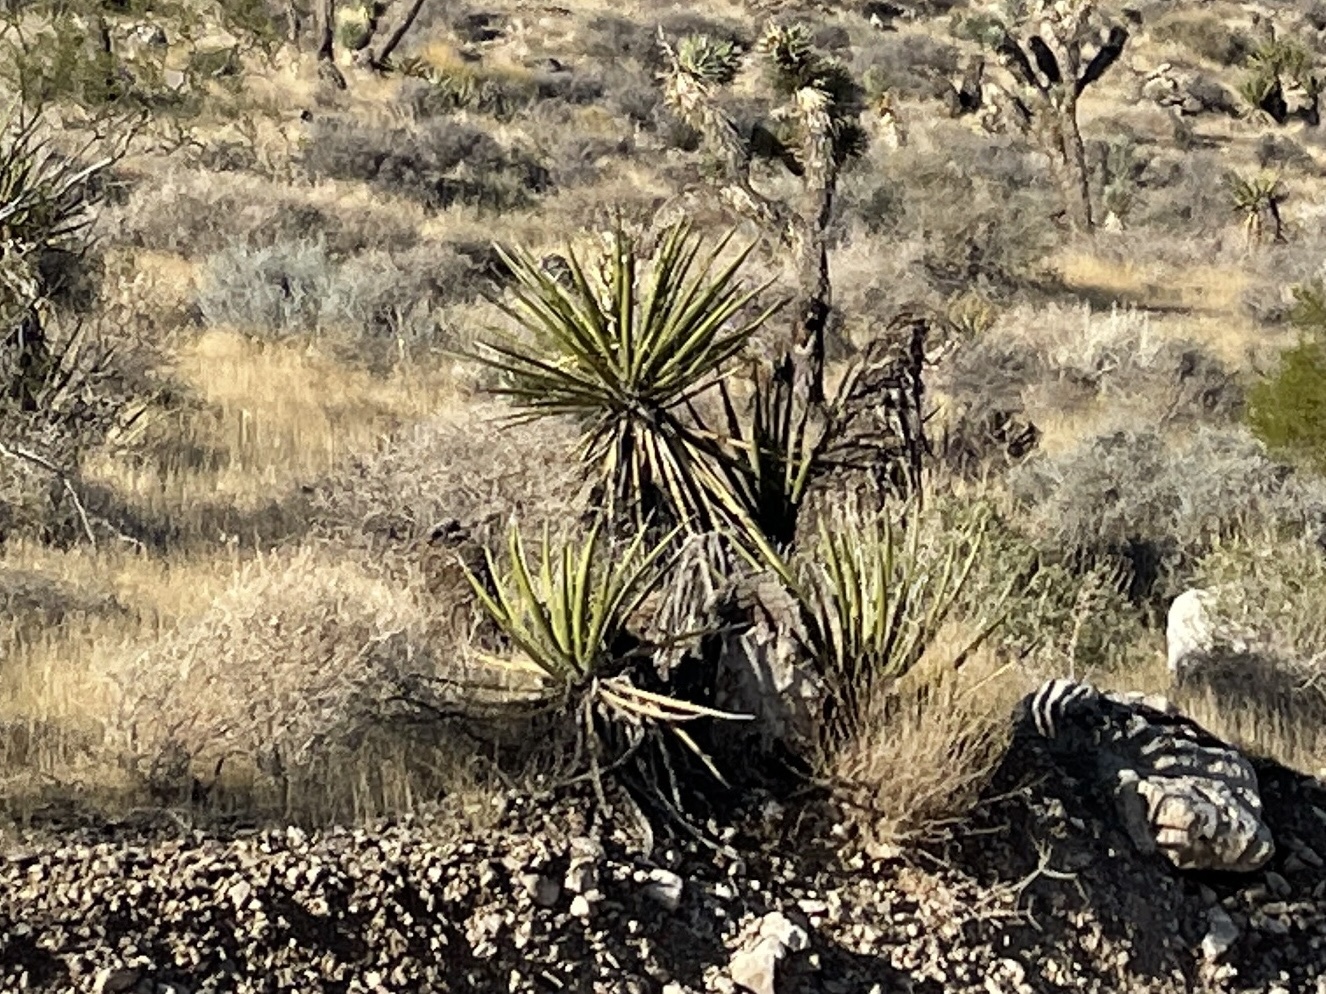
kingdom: Plantae
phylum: Tracheophyta
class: Liliopsida
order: Asparagales
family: Asparagaceae
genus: Yucca
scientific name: Yucca schidigera
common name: Mojave yucca
